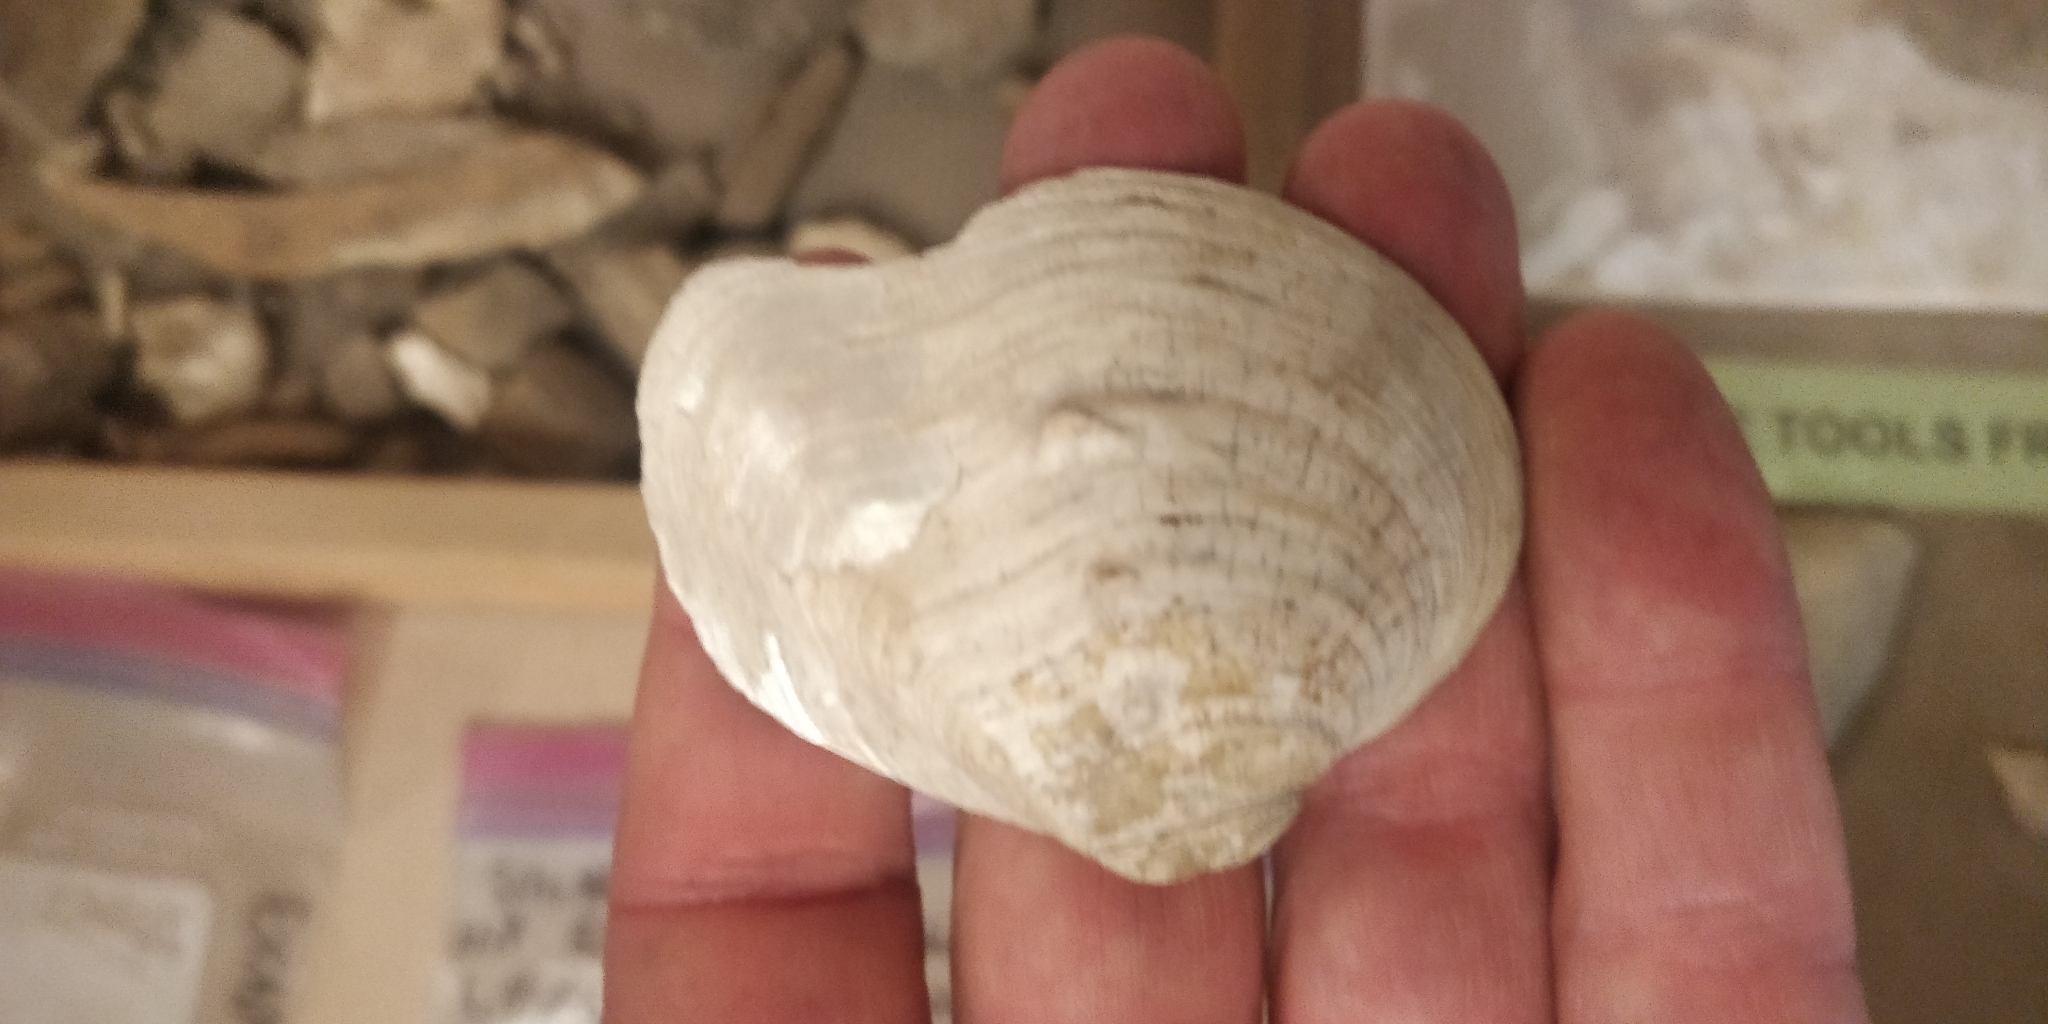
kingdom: Animalia
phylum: Mollusca
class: Bivalvia
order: Unionida
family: Unionidae
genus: Quadrula
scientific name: Quadrula quadrula
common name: Mapleleaf
